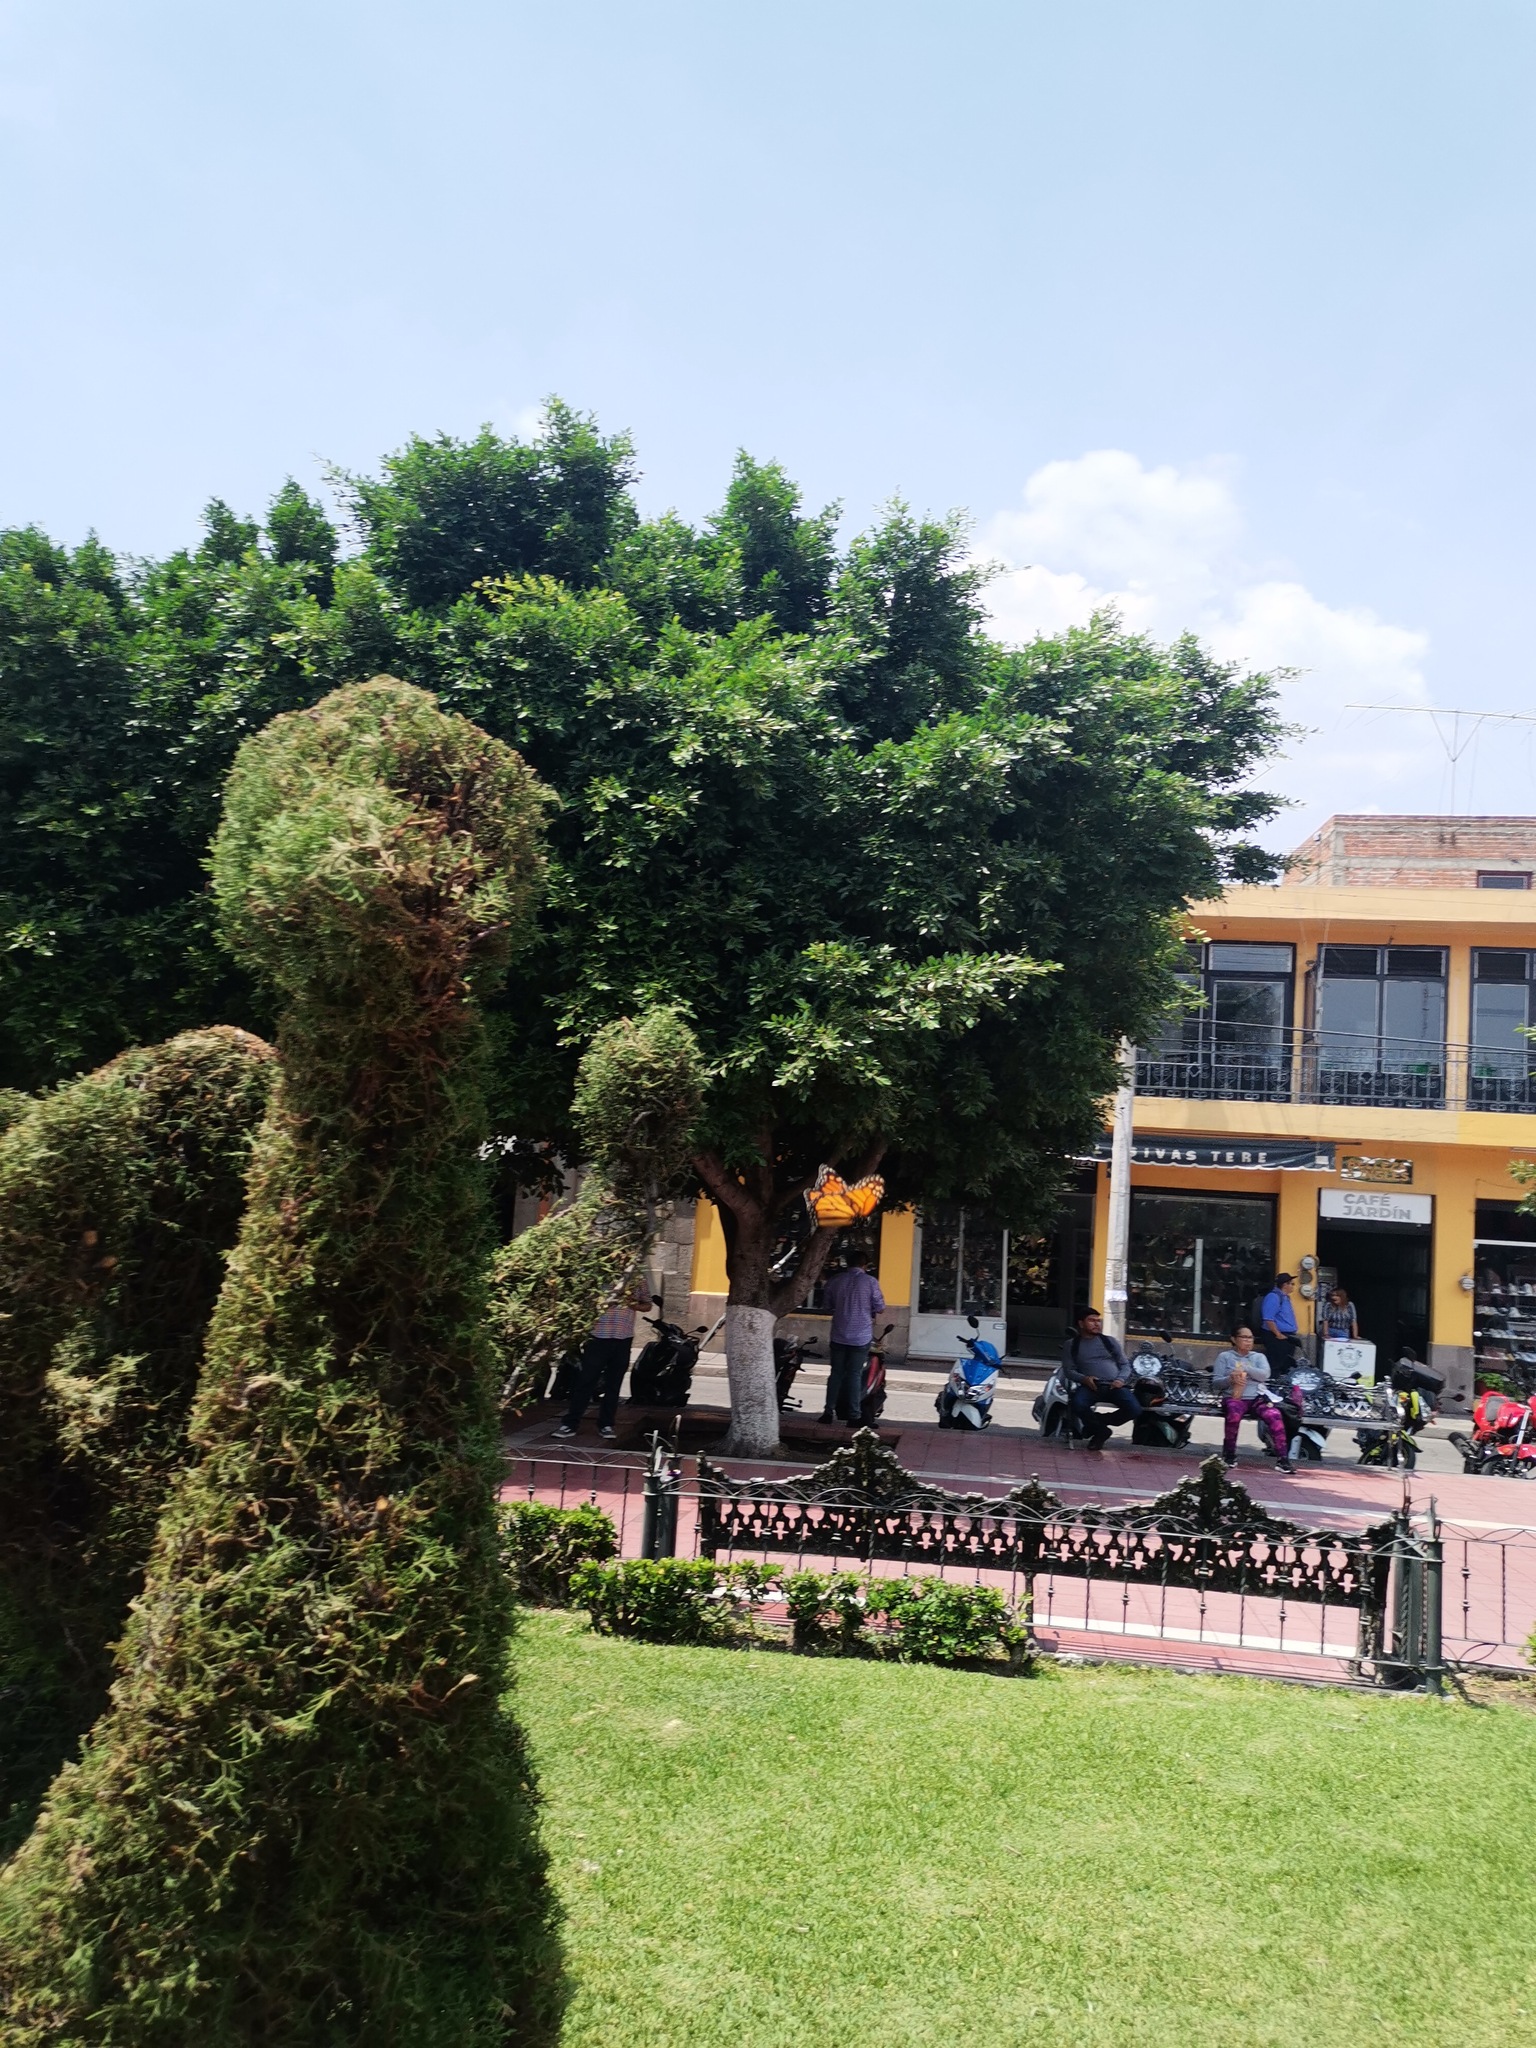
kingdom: Animalia
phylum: Arthropoda
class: Insecta
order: Lepidoptera
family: Nymphalidae
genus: Danaus
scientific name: Danaus plexippus
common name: Monarch
